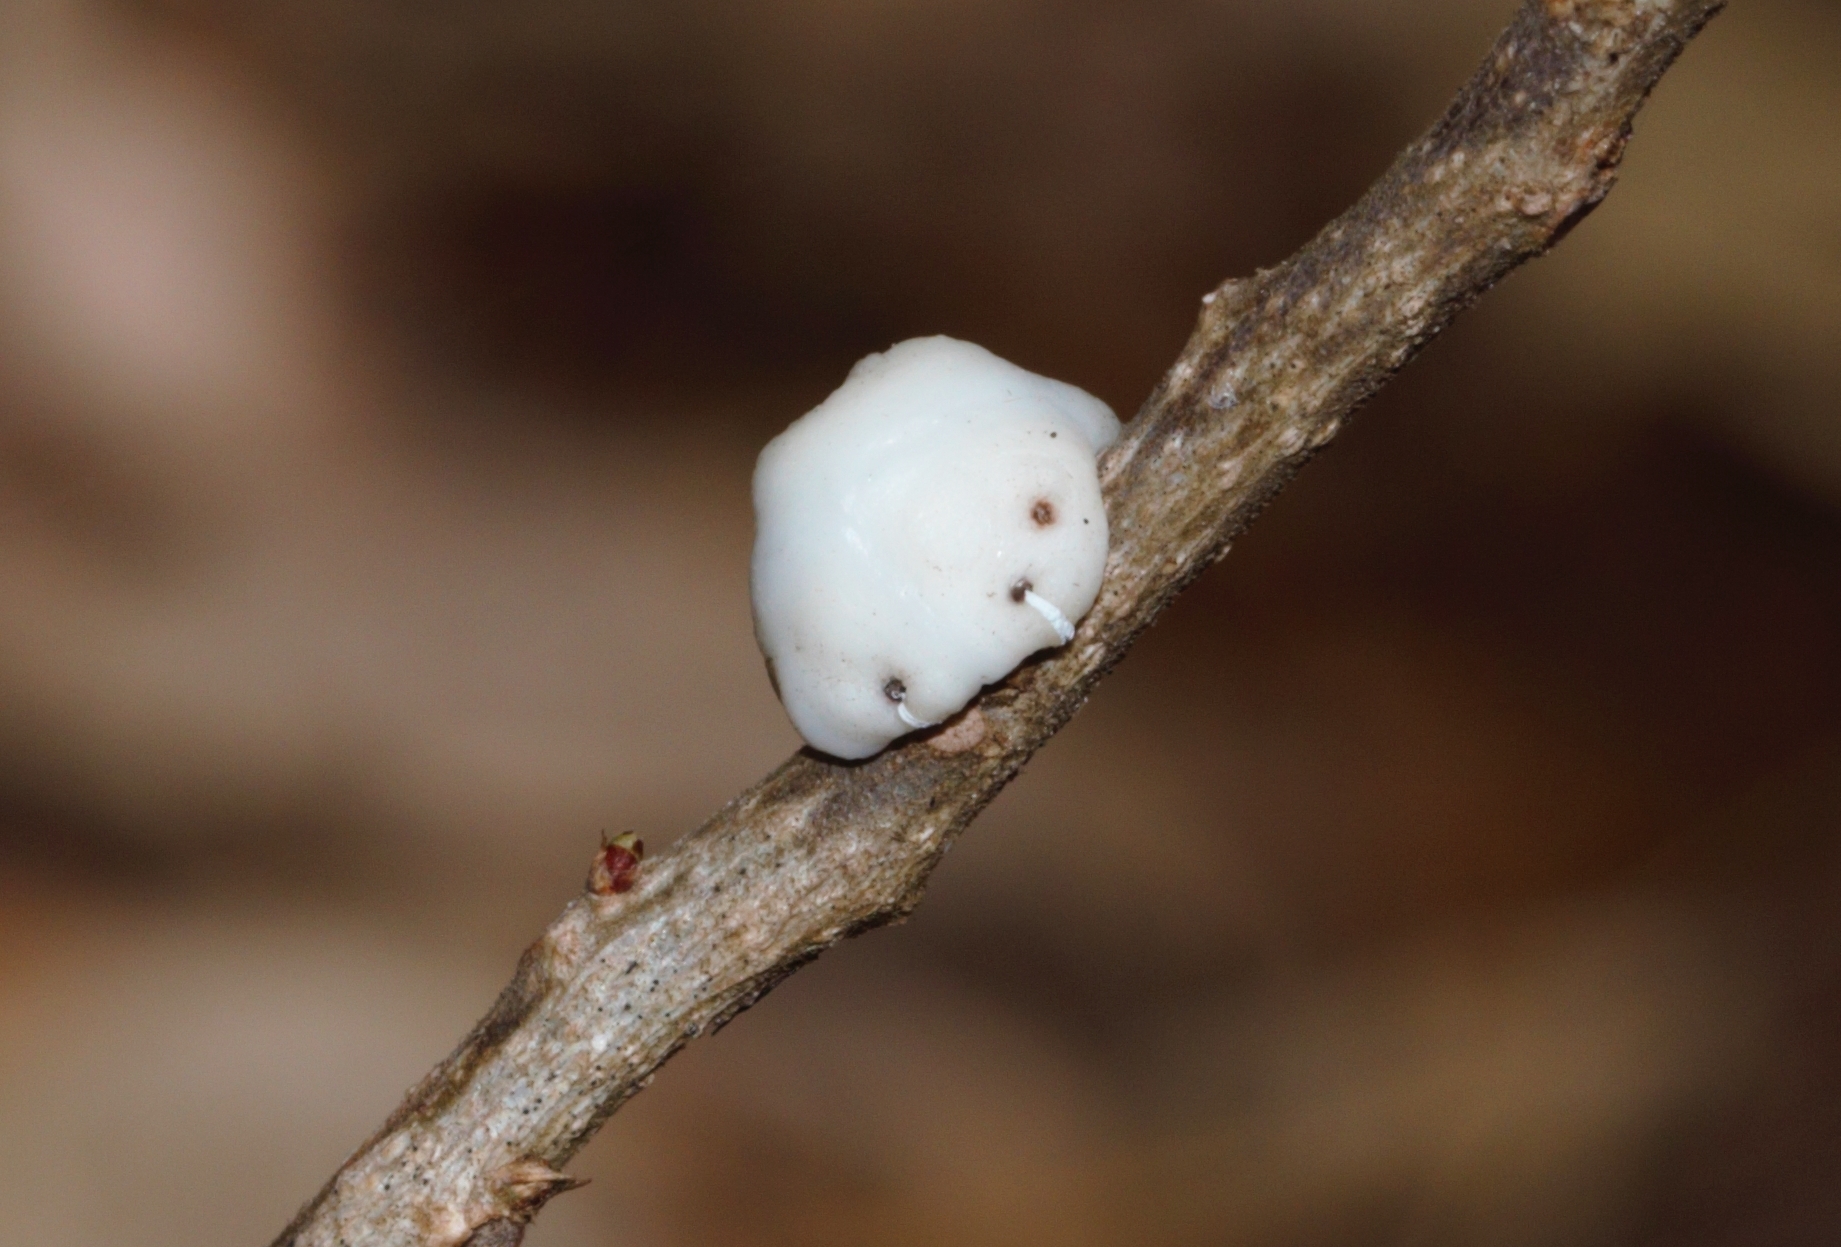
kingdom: Animalia
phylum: Arthropoda
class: Insecta
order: Hemiptera
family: Coccidae
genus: Ceroplastes
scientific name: Ceroplastes destructor
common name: Indian wax scale
